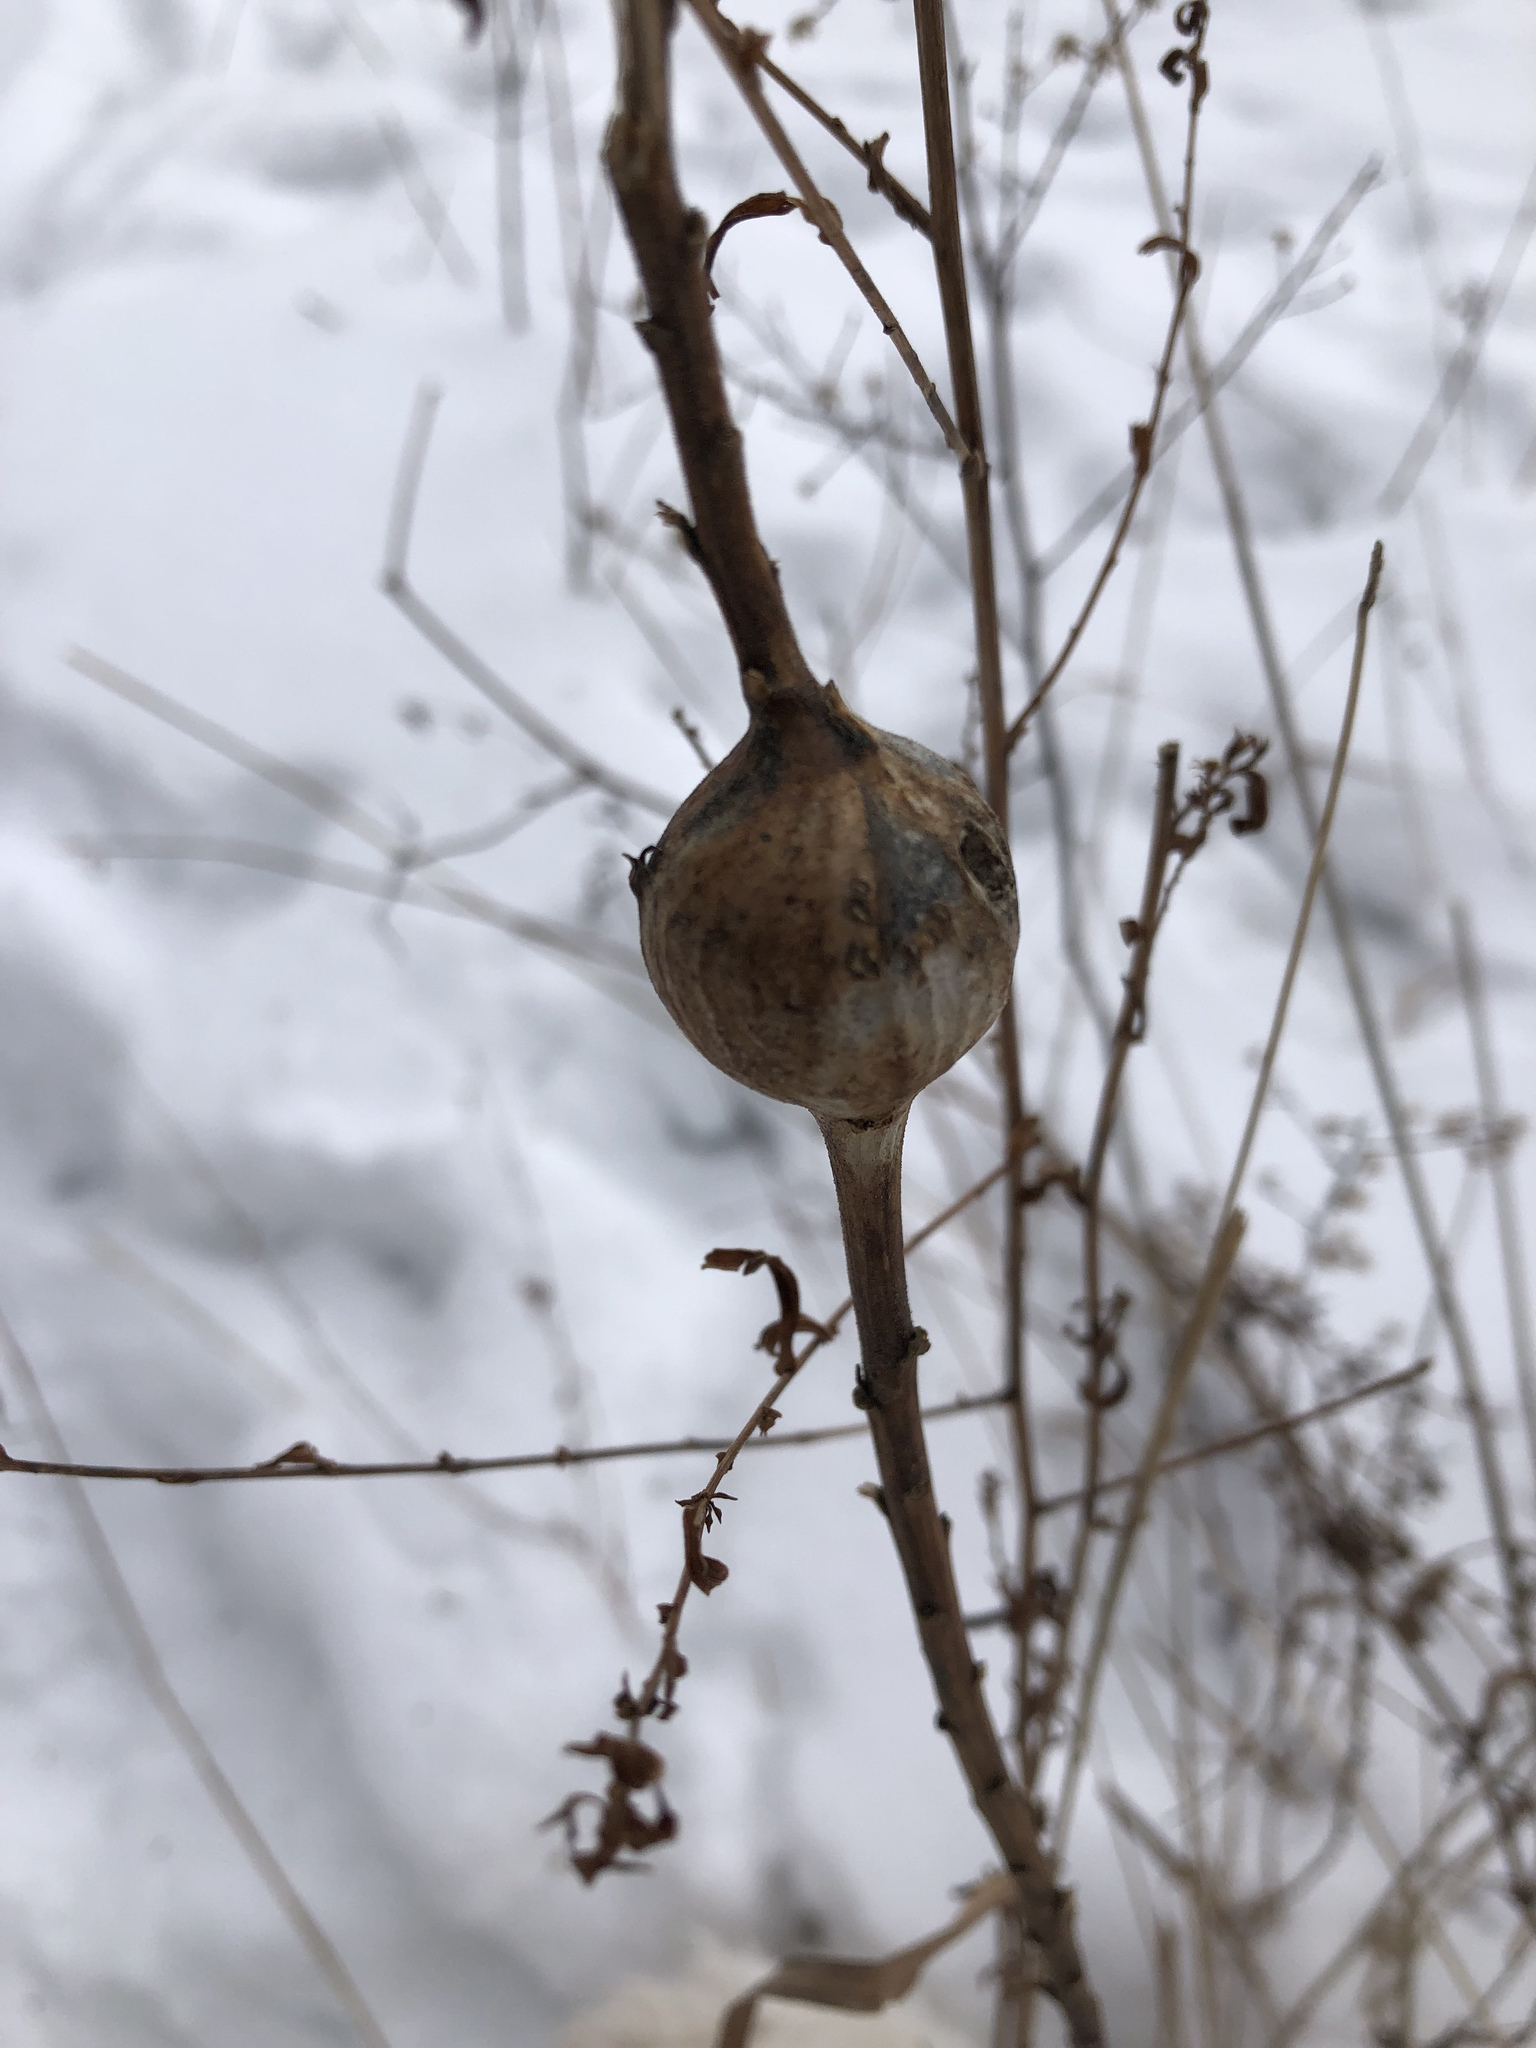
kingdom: Animalia
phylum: Arthropoda
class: Insecta
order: Diptera
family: Tephritidae
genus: Eurosta
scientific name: Eurosta solidaginis
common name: Goldenrod gall fly
